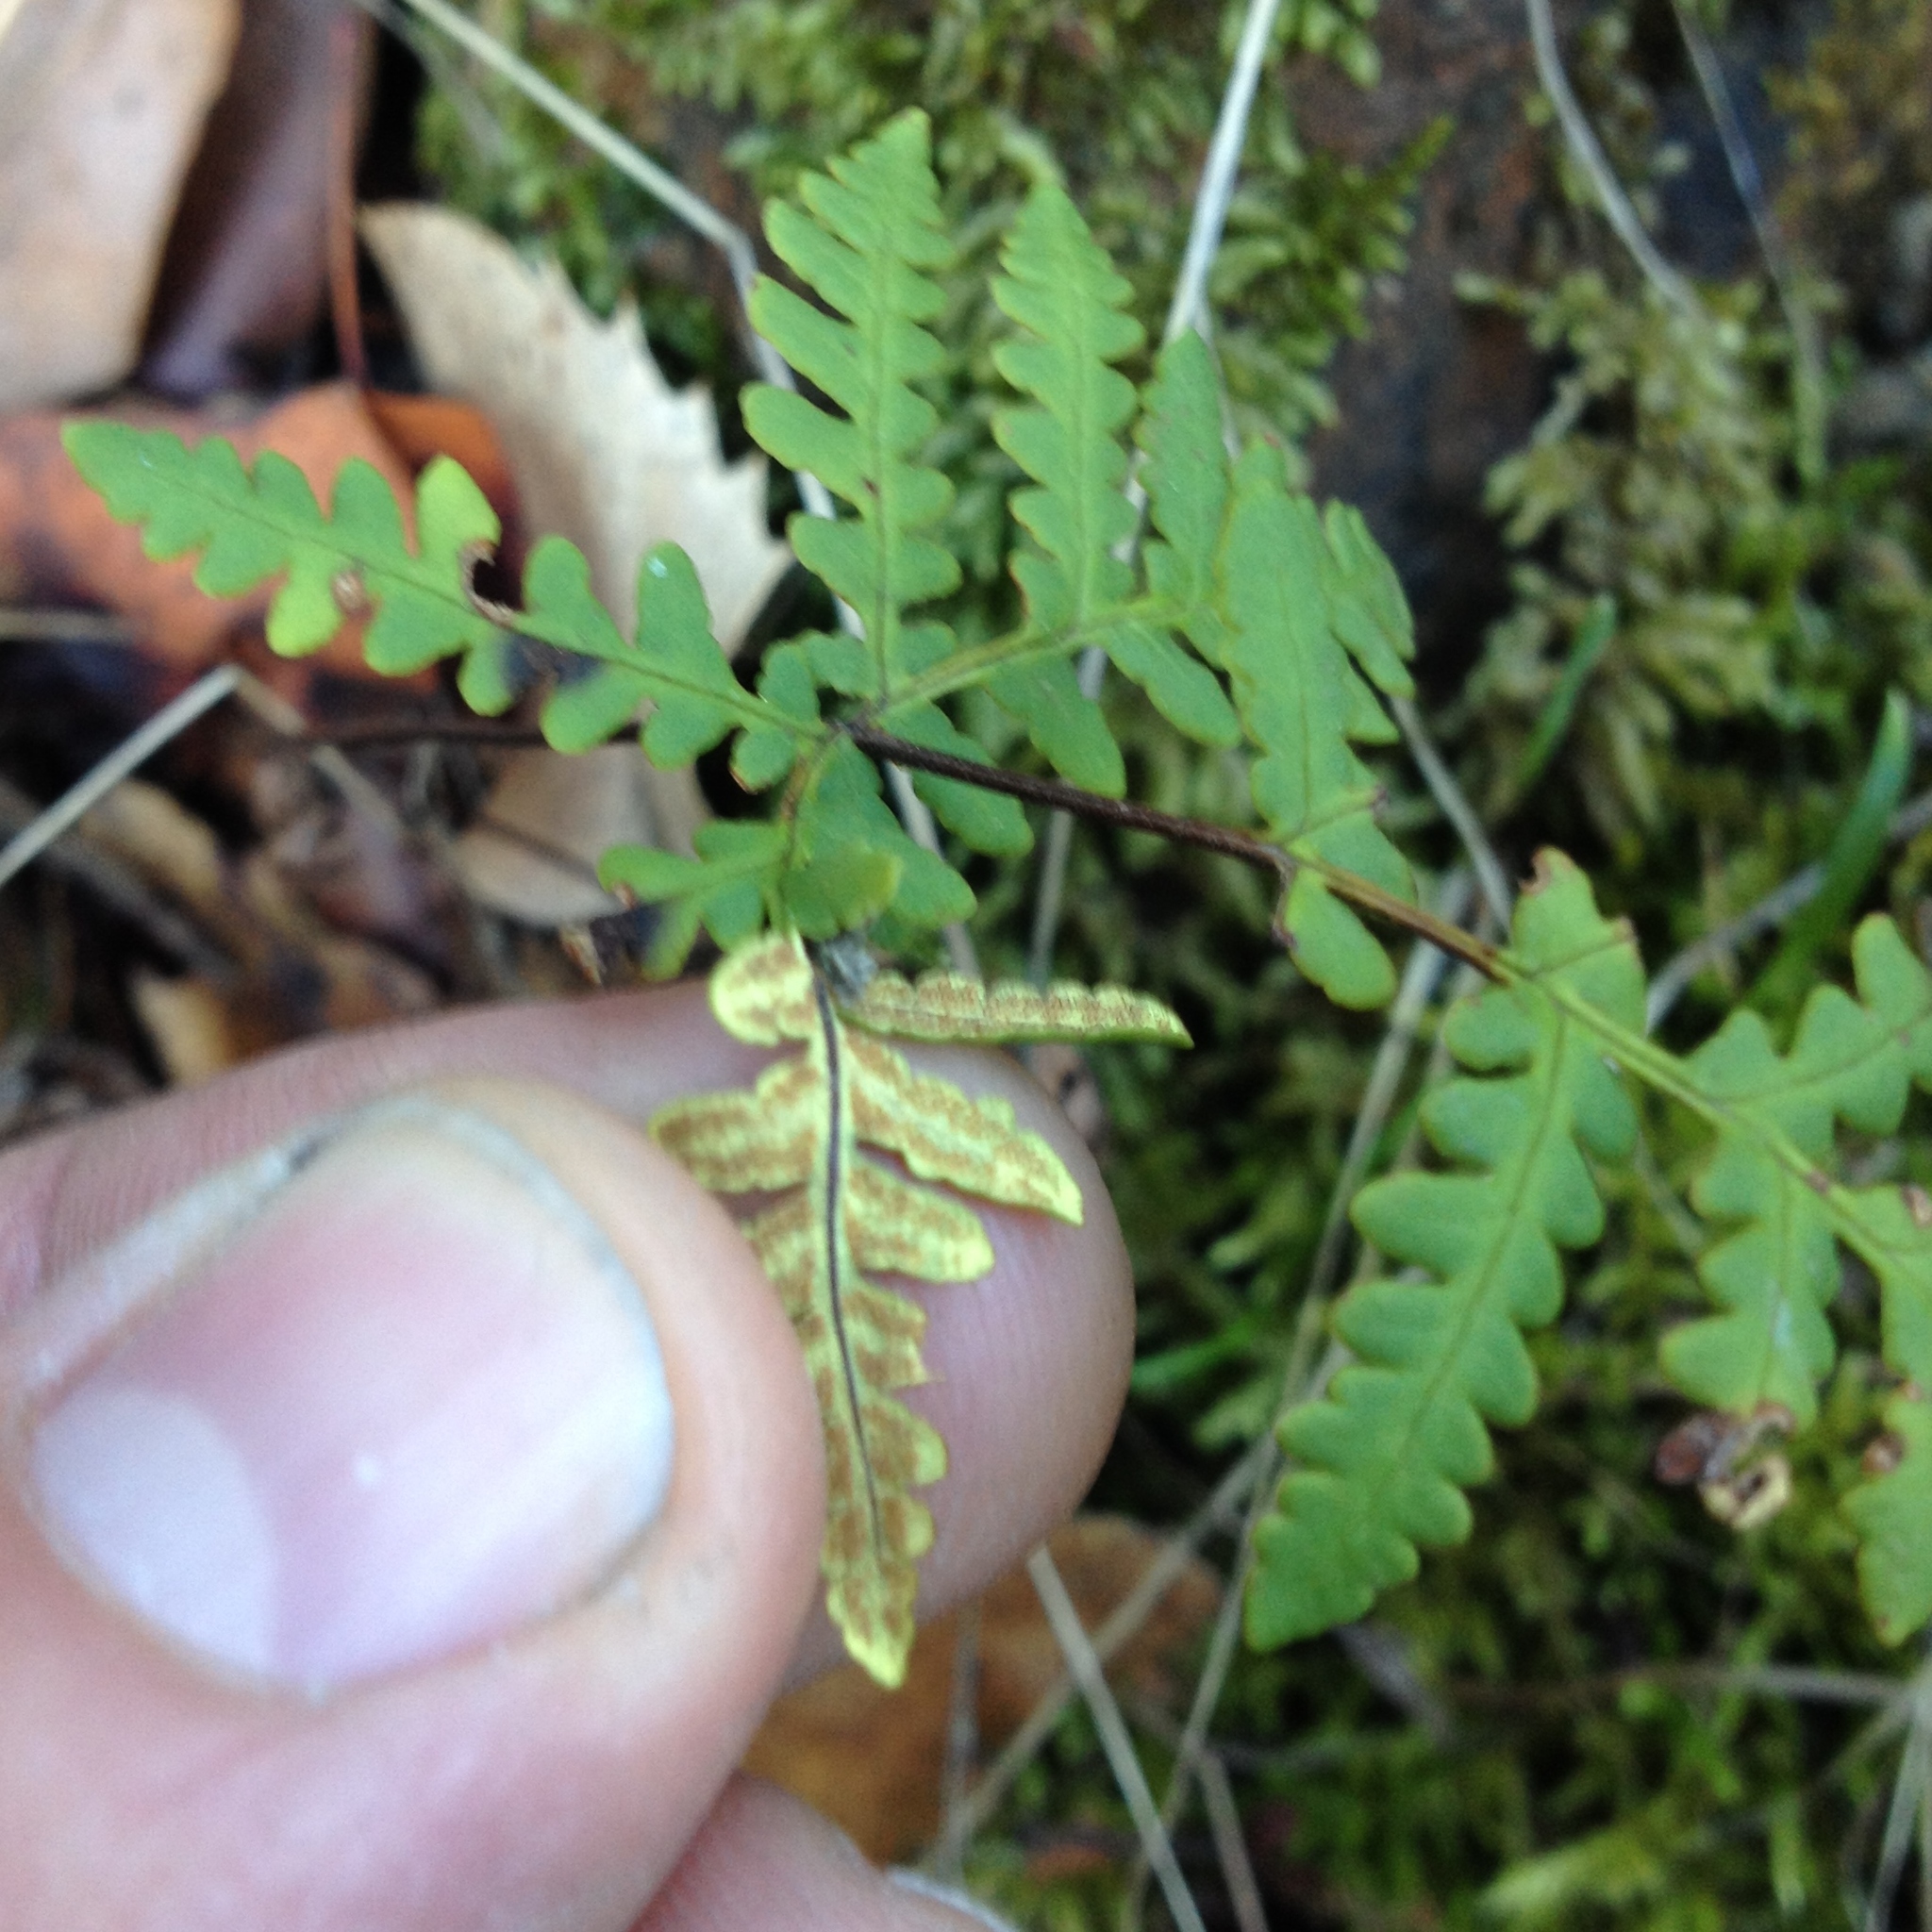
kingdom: Plantae
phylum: Tracheophyta
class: Polypodiopsida
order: Polypodiales
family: Pteridaceae
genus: Pentagramma
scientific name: Pentagramma triangularis
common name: Gold fern
